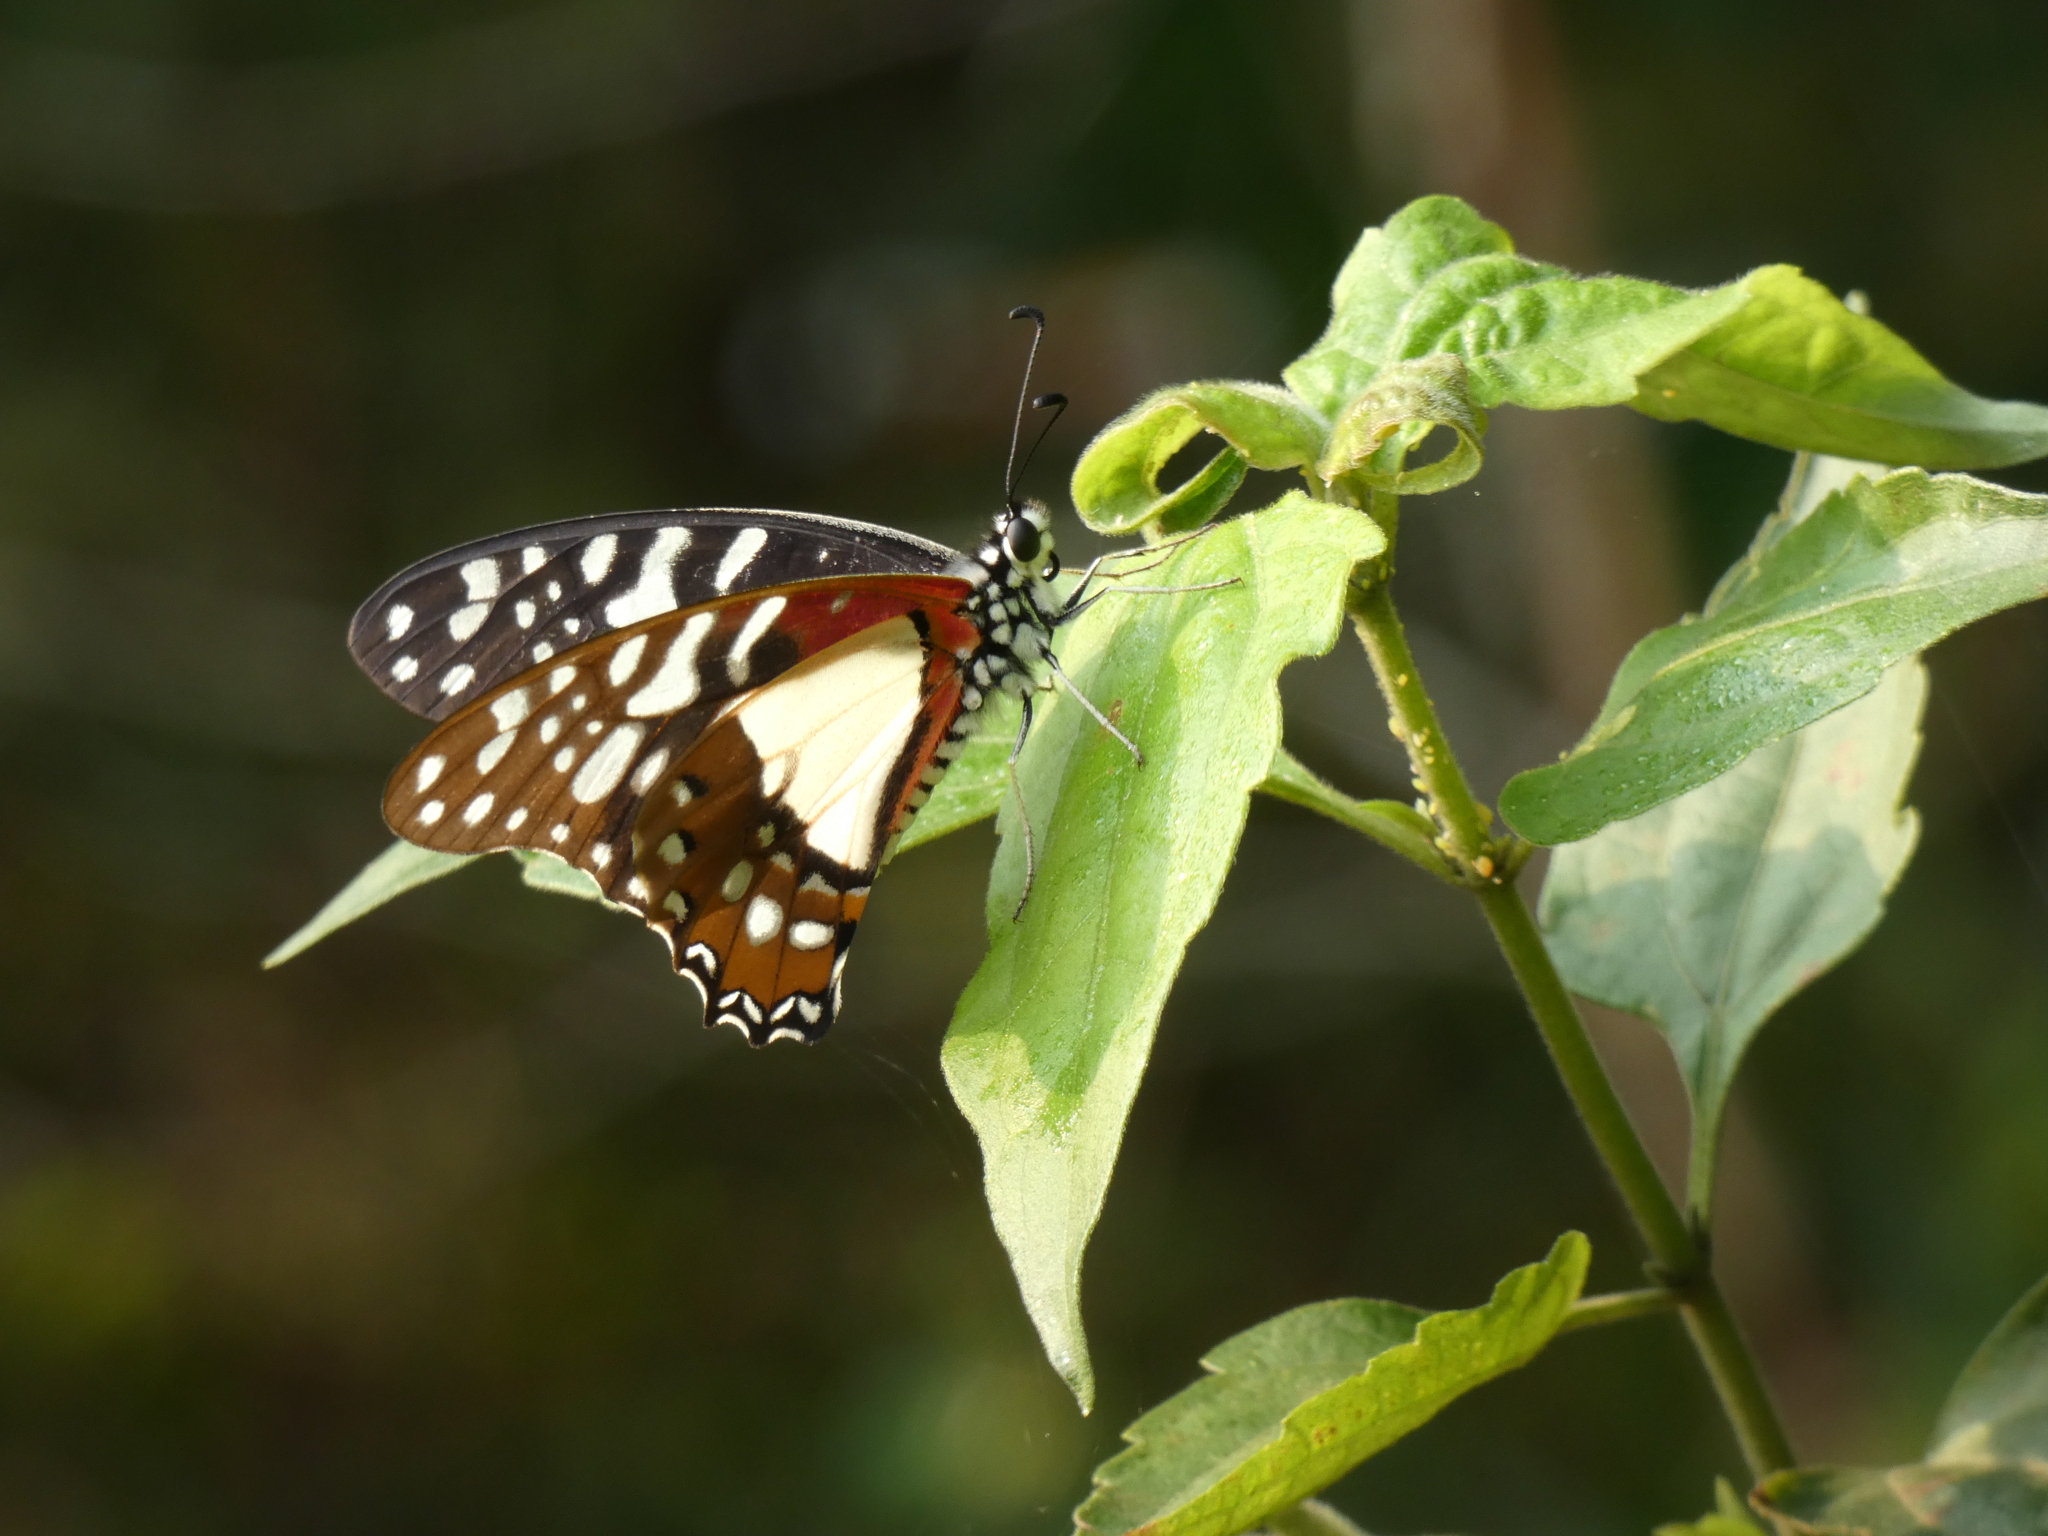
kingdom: Animalia
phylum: Arthropoda
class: Insecta
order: Lepidoptera
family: Papilionidae
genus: Graphium
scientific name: Graphium angolanus
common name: Angola white-lady swordtail
